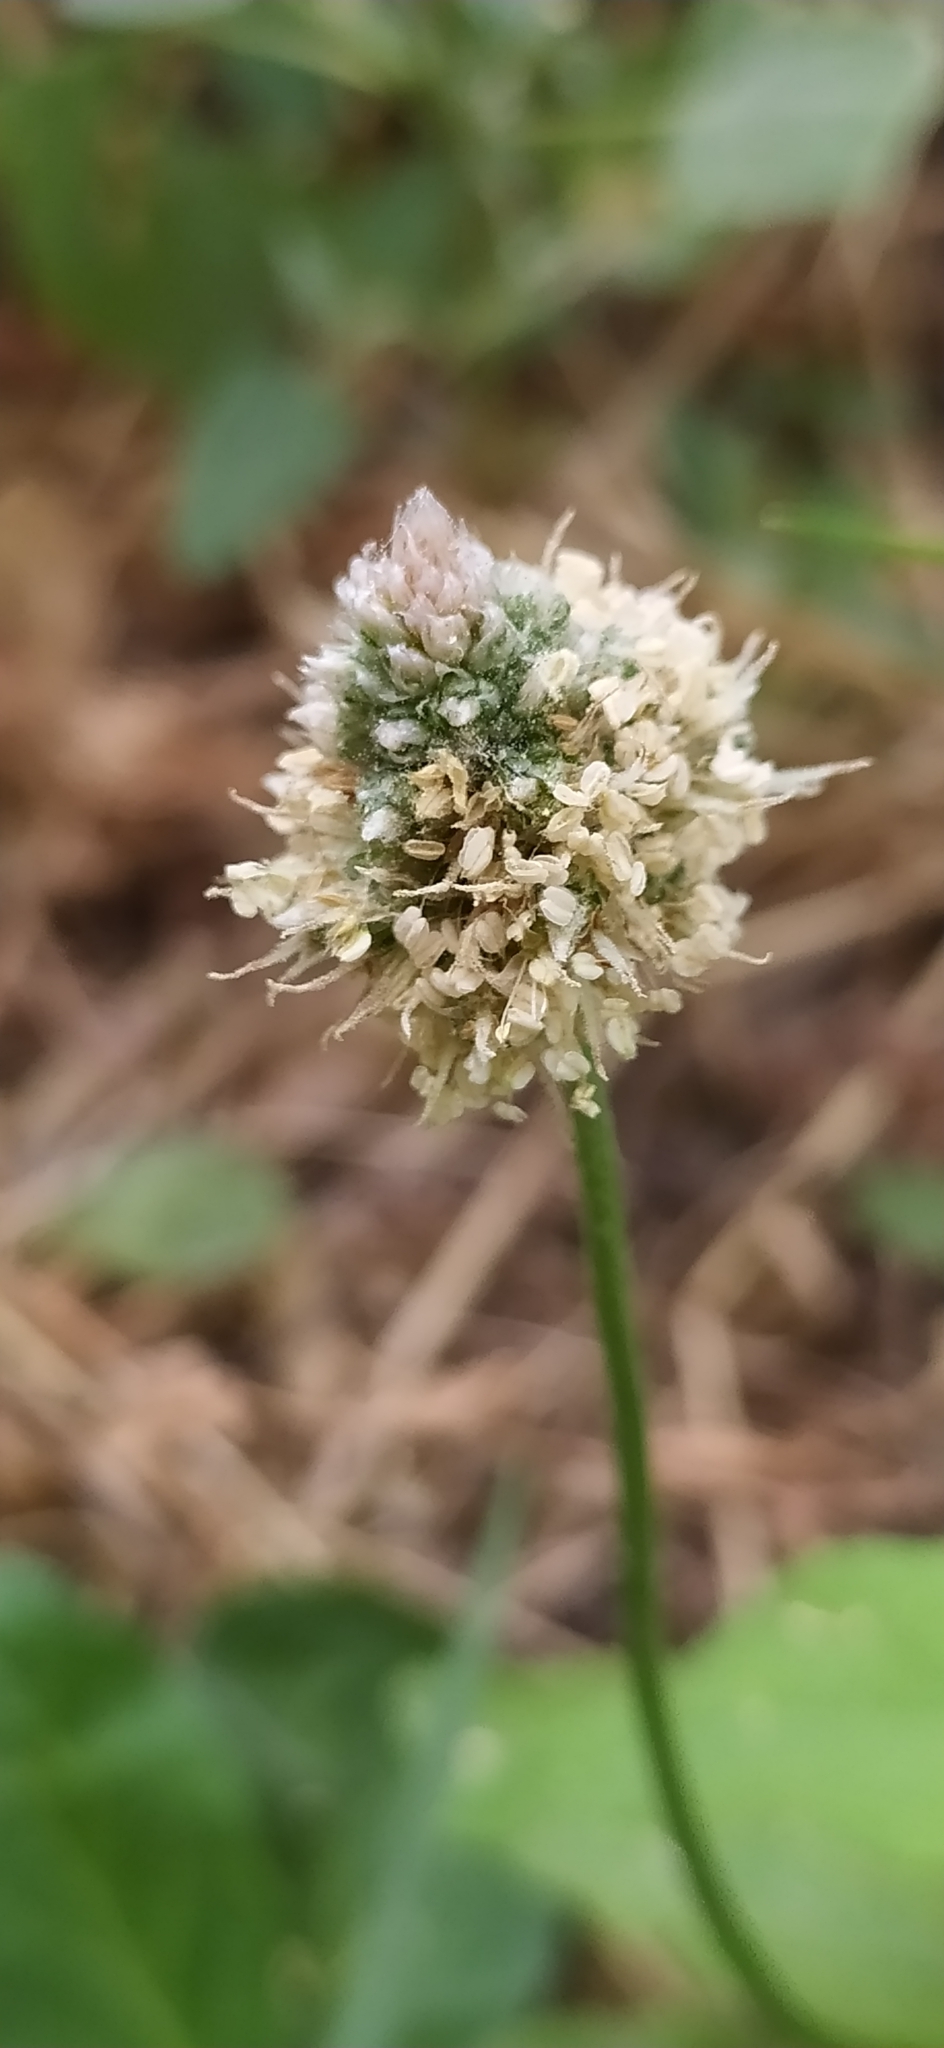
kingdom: Plantae
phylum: Tracheophyta
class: Magnoliopsida
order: Lamiales
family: Plantaginaceae
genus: Plantago
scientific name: Plantago lanceolata
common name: Ribwort plantain
